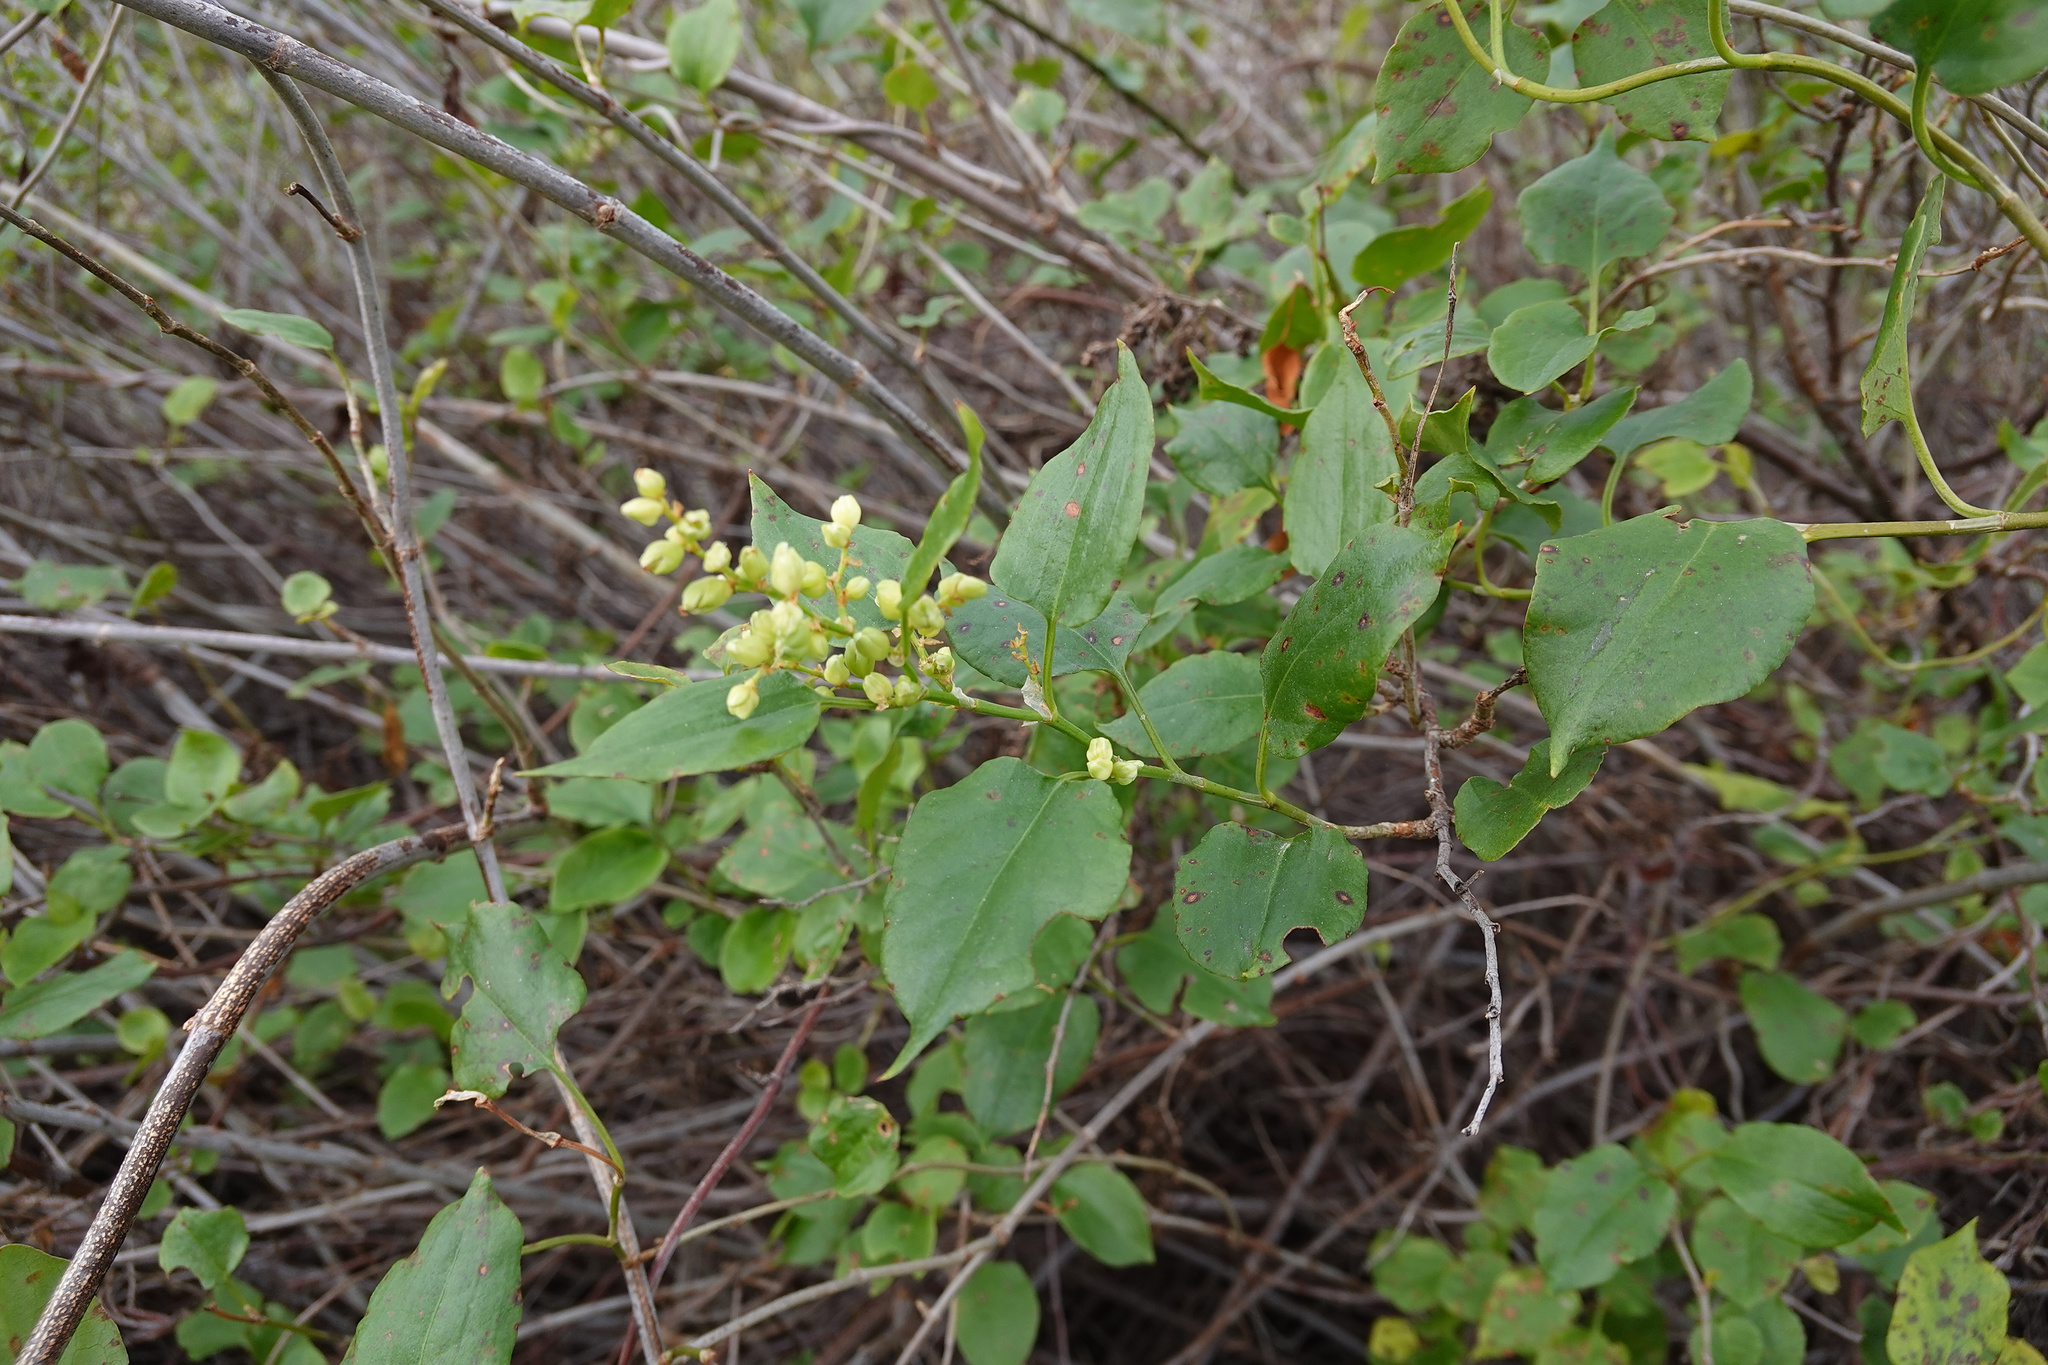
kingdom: Plantae
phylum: Tracheophyta
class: Magnoliopsida
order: Caryophyllales
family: Polygonaceae
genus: Muehlenbeckia
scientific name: Muehlenbeckia australis
